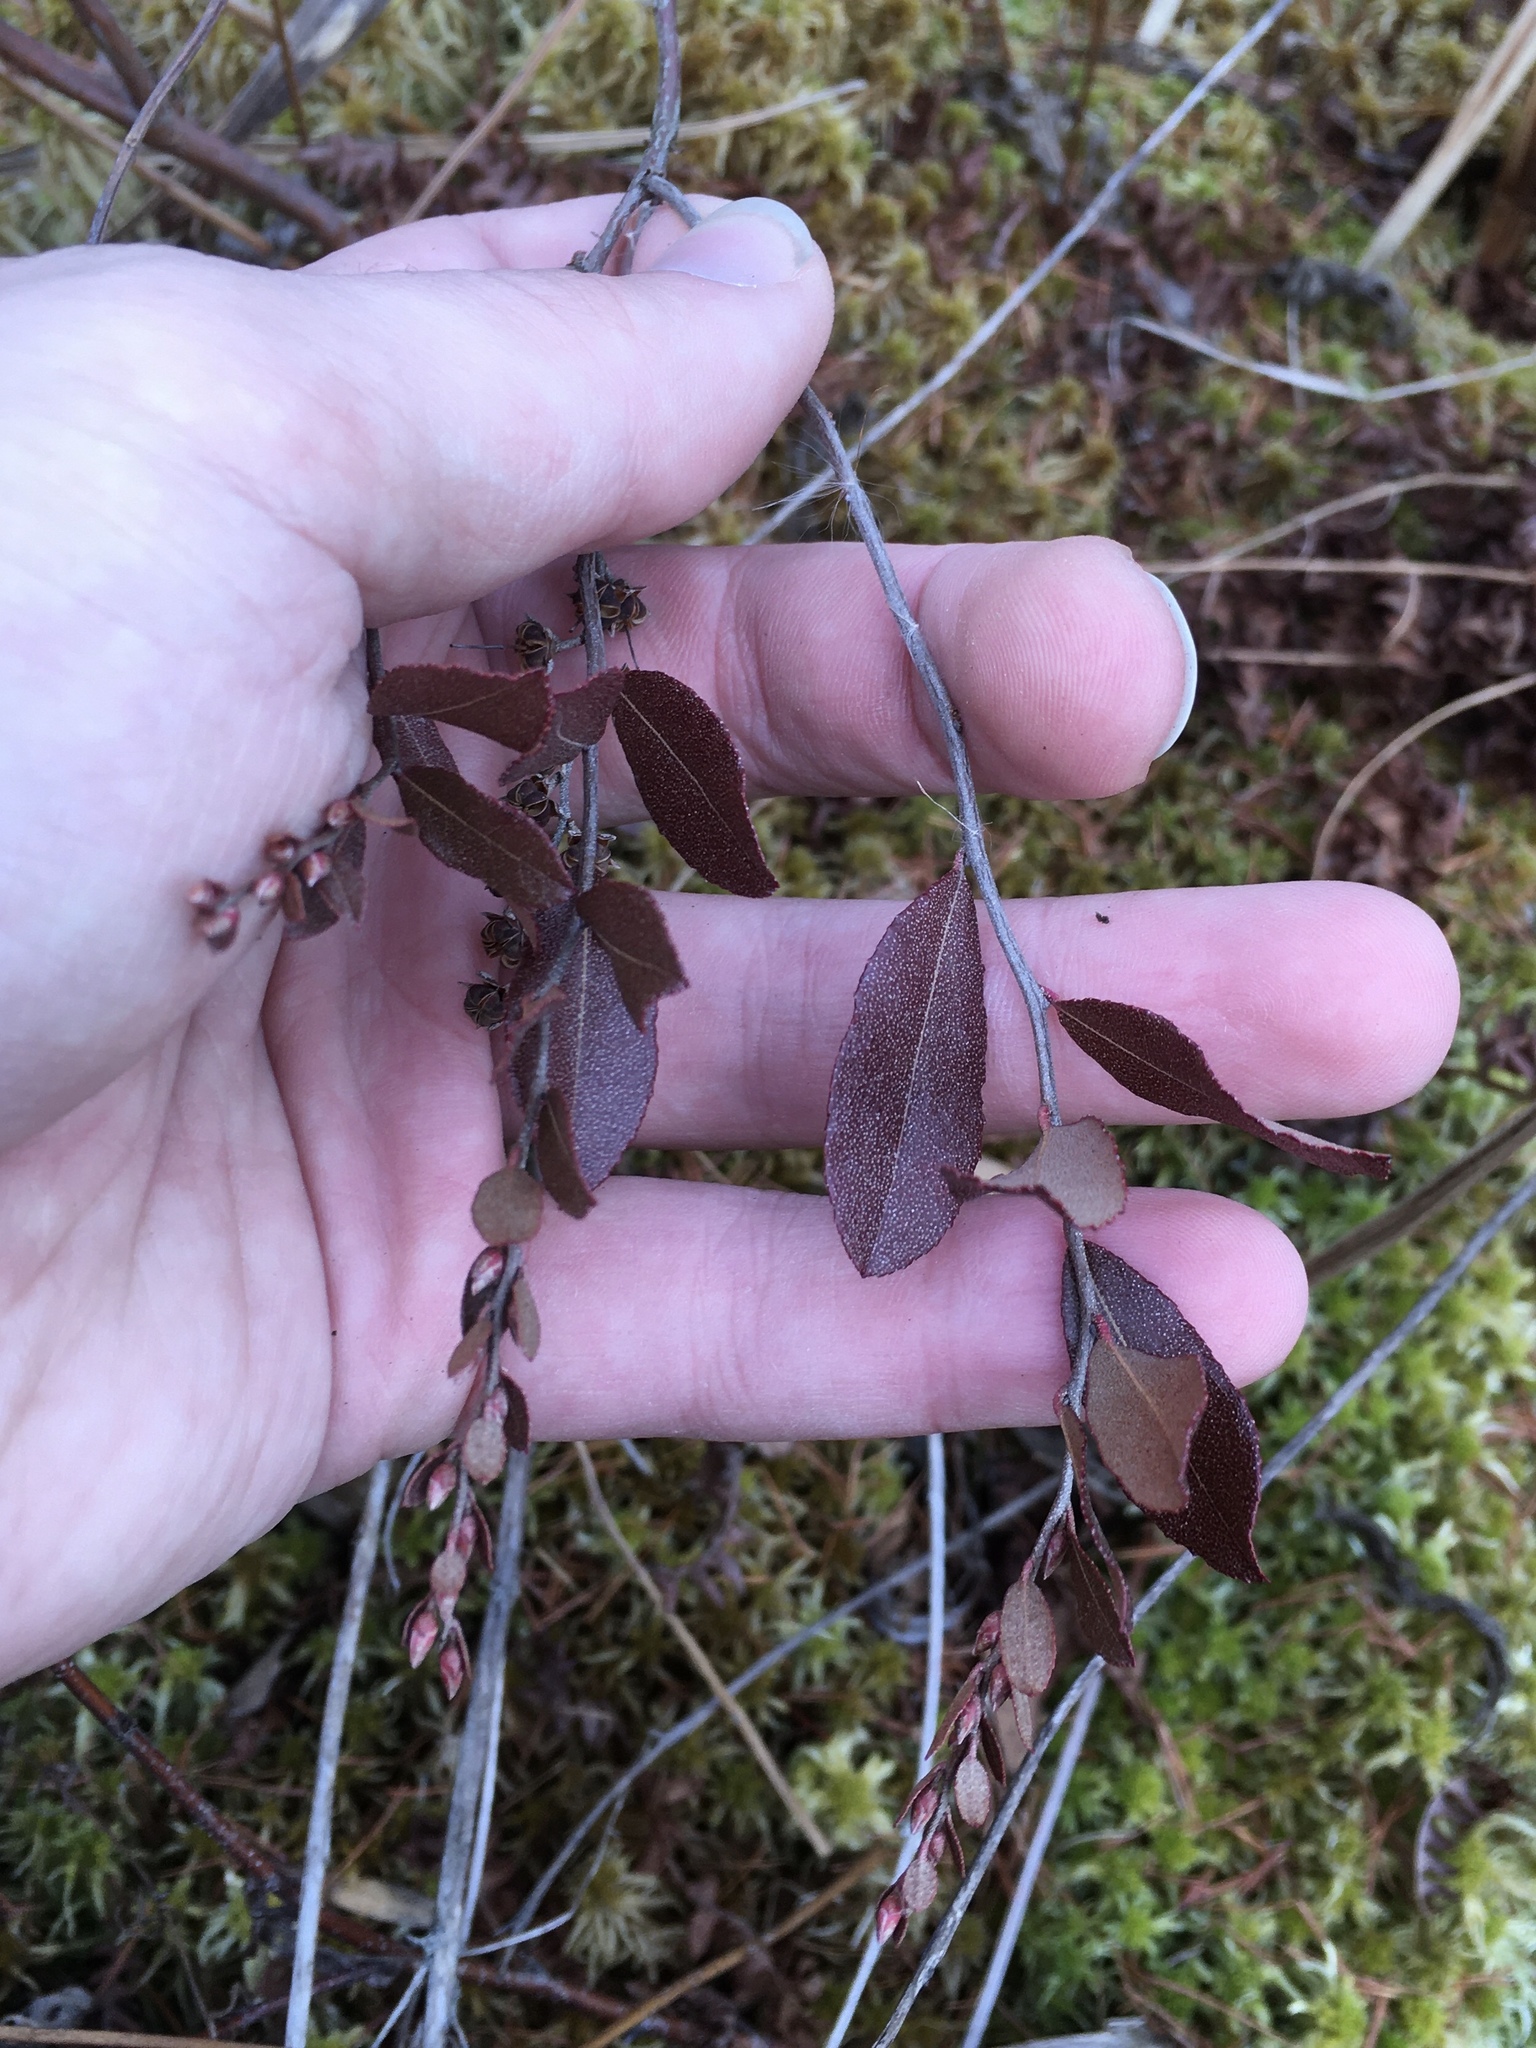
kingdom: Plantae
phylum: Tracheophyta
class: Magnoliopsida
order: Ericales
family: Ericaceae
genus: Chamaedaphne
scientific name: Chamaedaphne calyculata
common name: Leatherleaf
